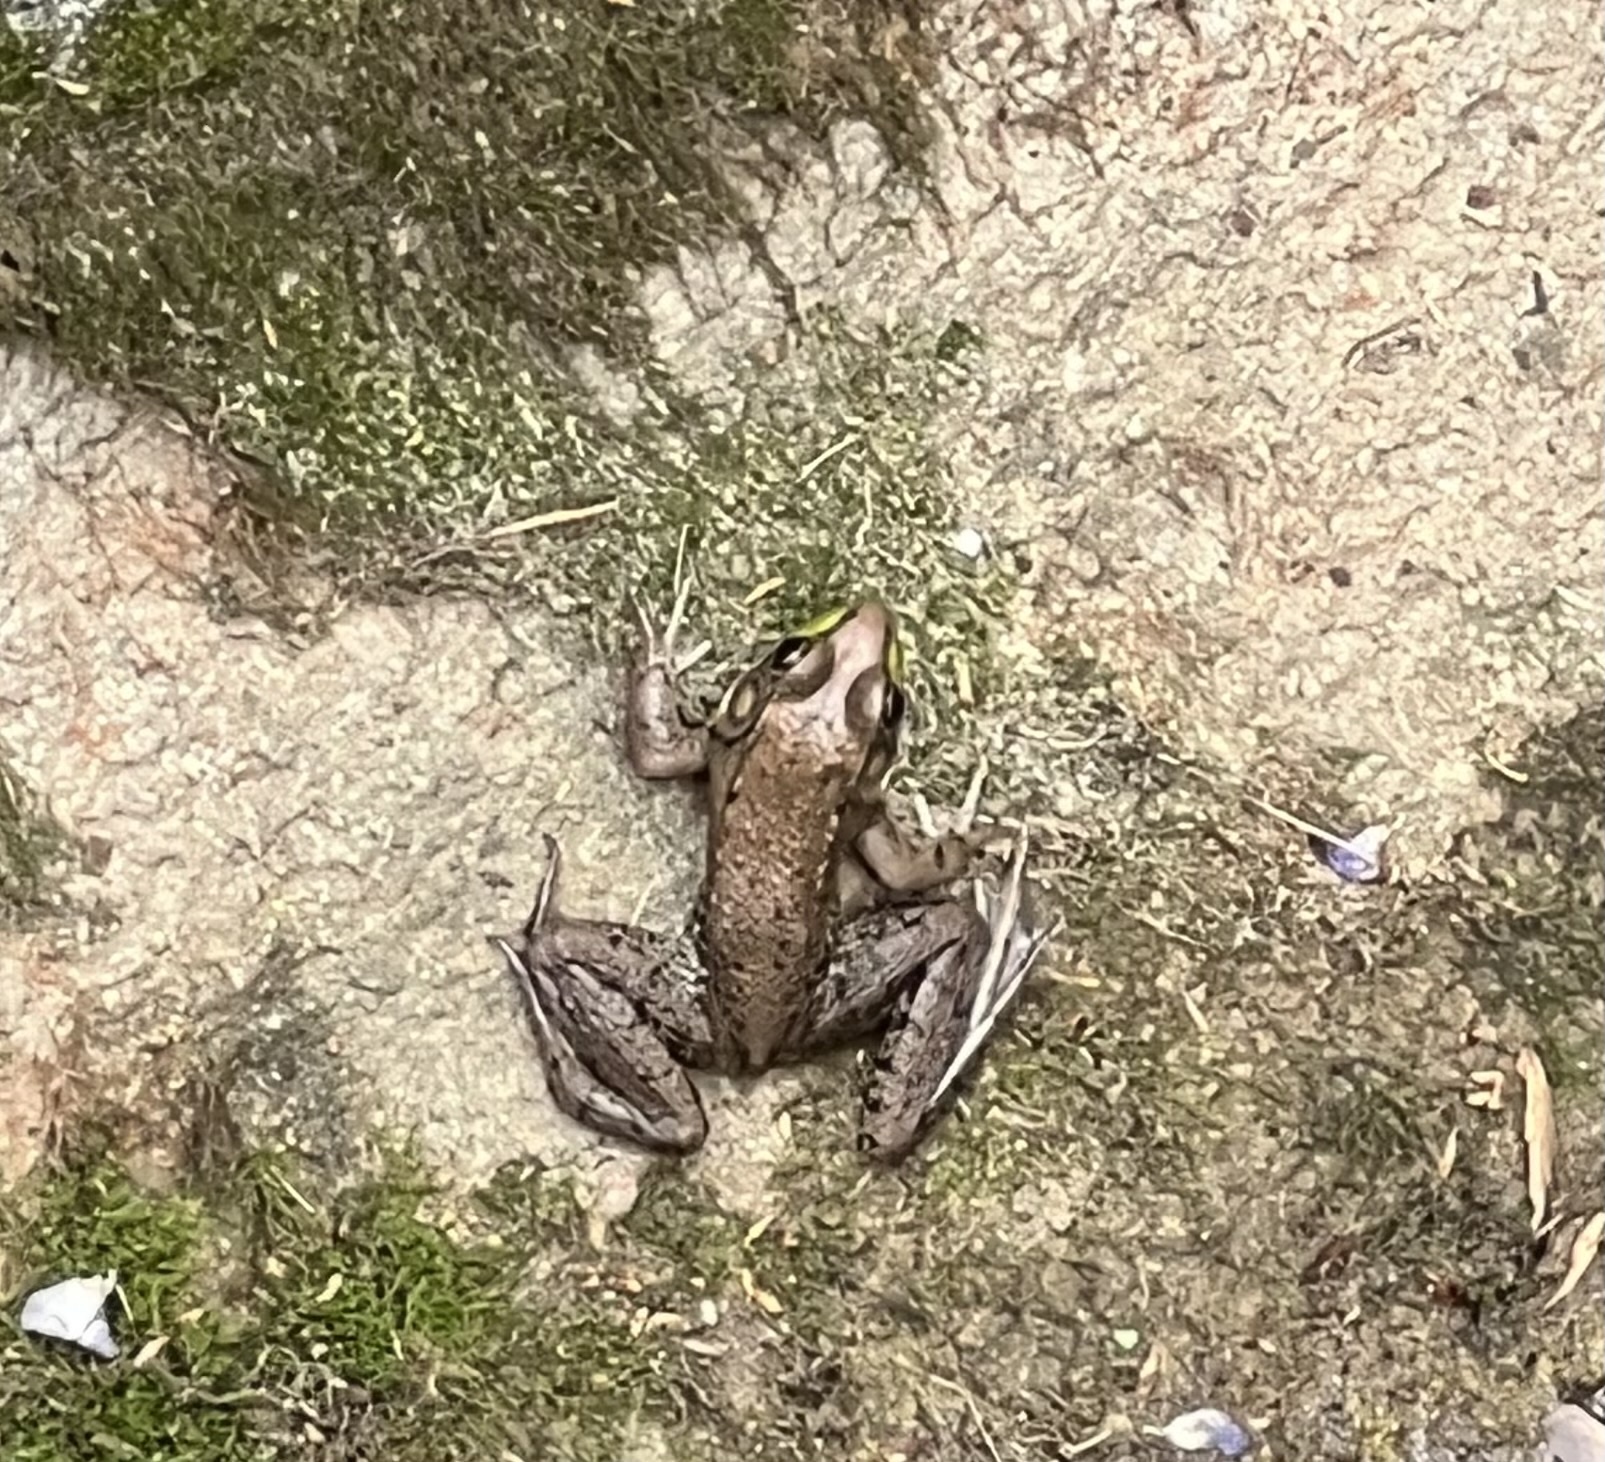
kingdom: Animalia
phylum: Chordata
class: Amphibia
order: Anura
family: Ranidae
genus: Lithobates
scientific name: Lithobates clamitans
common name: Green frog
